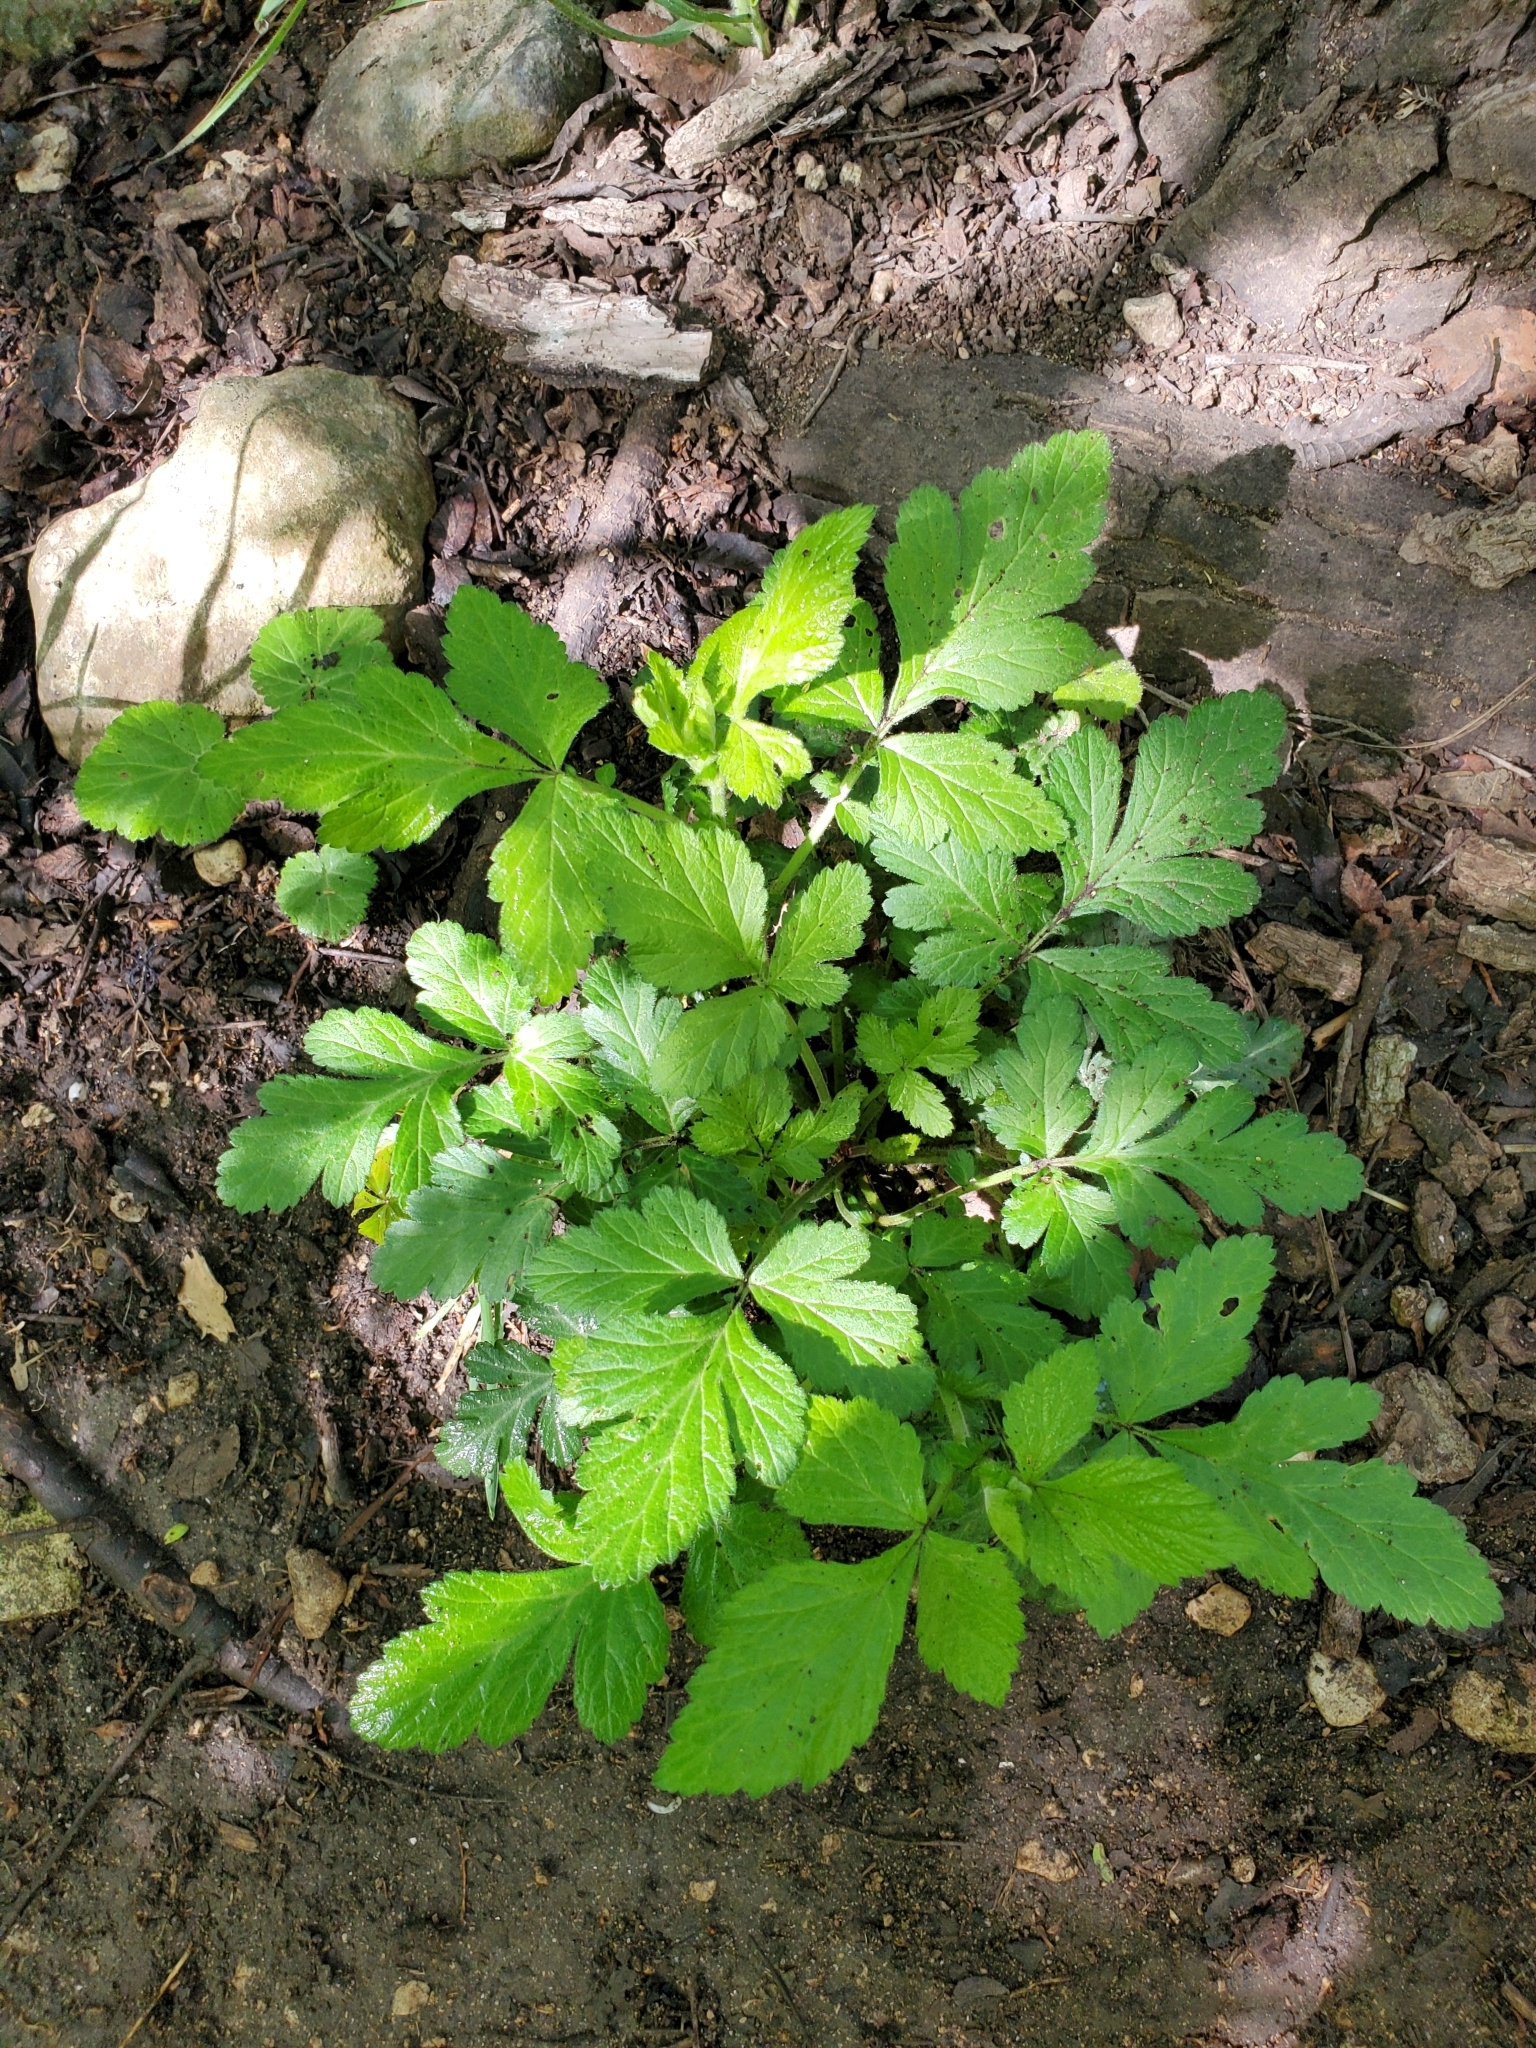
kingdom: Plantae
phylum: Tracheophyta
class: Magnoliopsida
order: Rosales
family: Rosaceae
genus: Geum
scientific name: Geum canadense
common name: White avens
